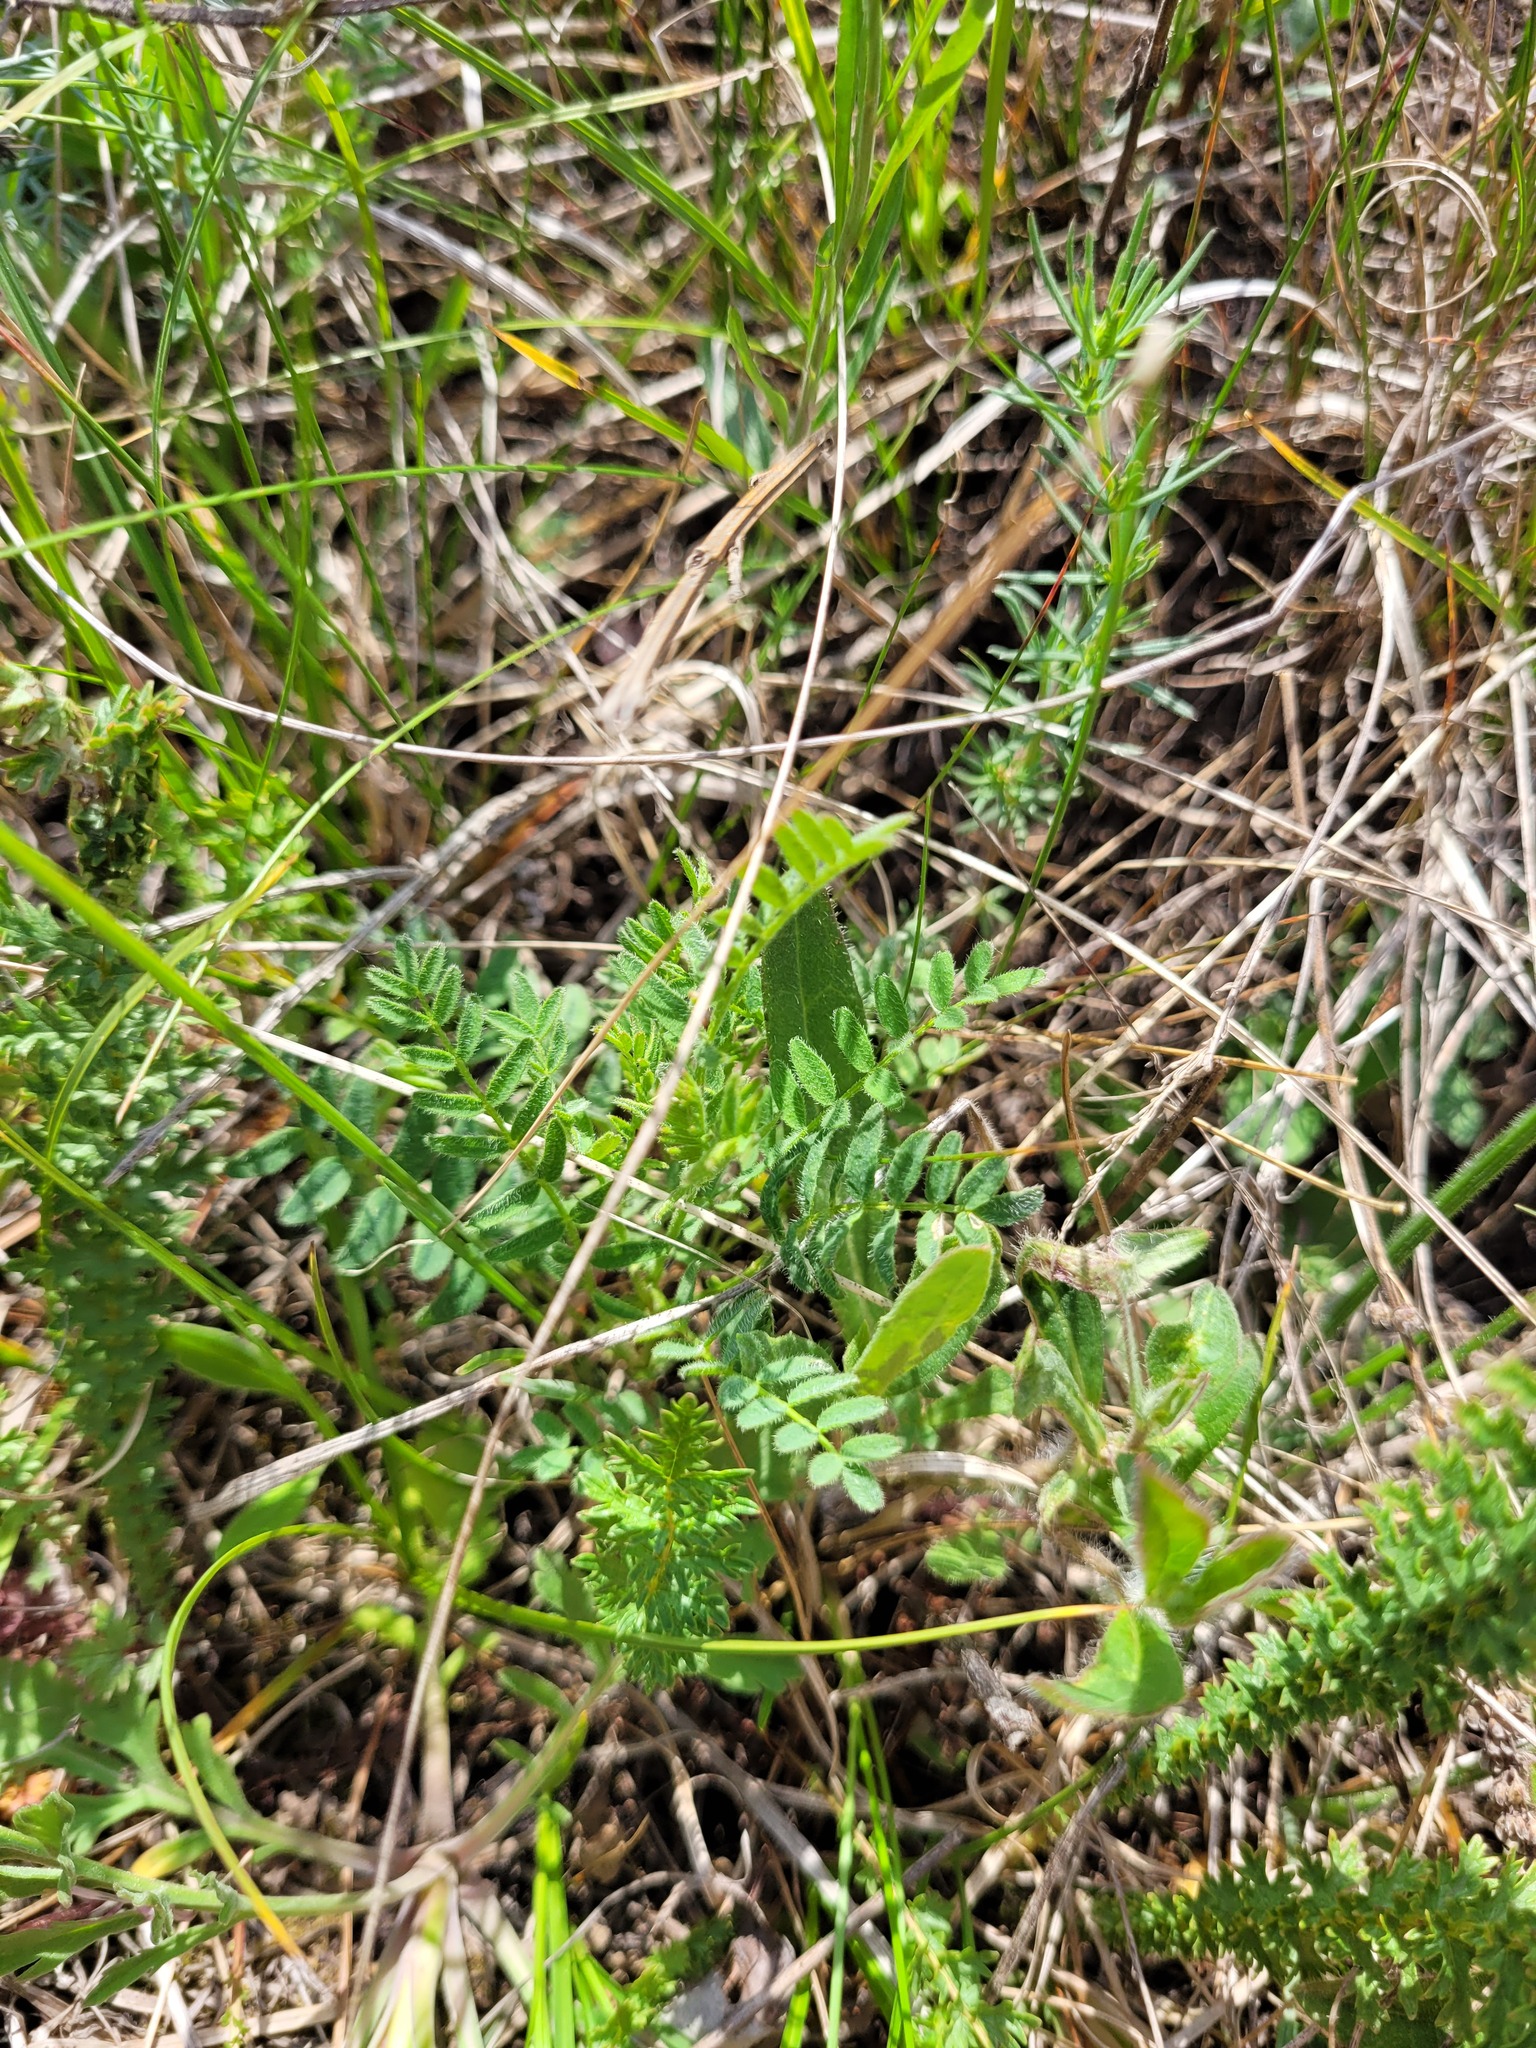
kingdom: Plantae
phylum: Tracheophyta
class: Magnoliopsida
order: Fabales
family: Fabaceae
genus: Astragalus
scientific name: Astragalus danicus
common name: Purple milk-vetch
